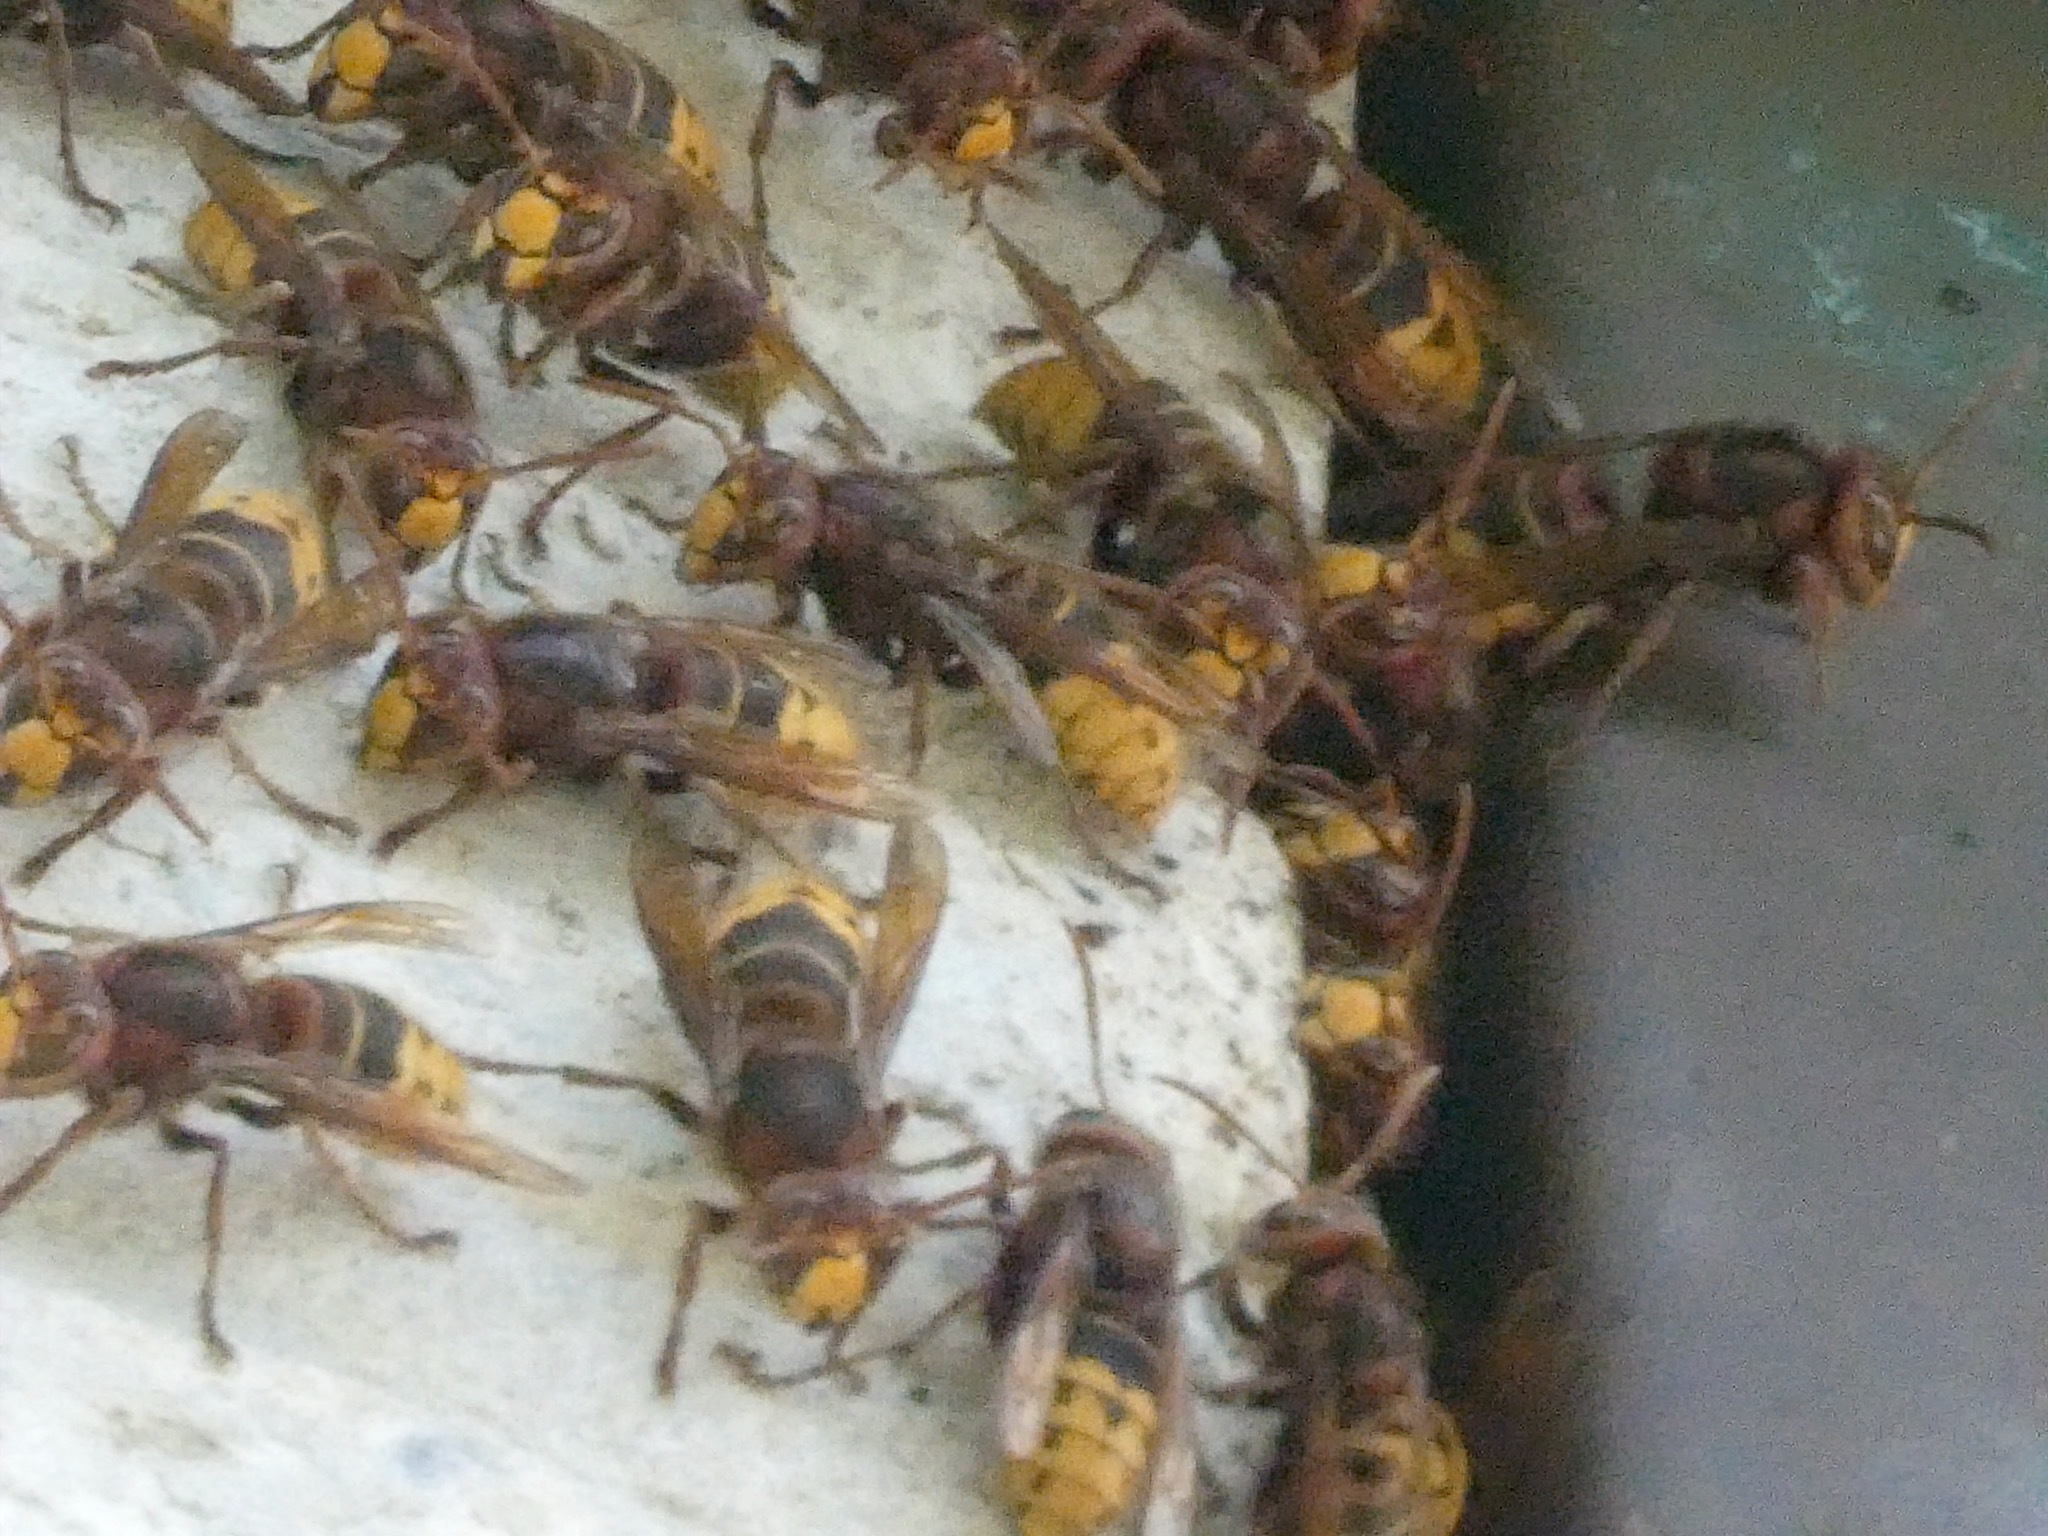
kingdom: Animalia
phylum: Arthropoda
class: Insecta
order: Hymenoptera
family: Vespidae
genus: Vespa
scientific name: Vespa crabro
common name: Hornet
